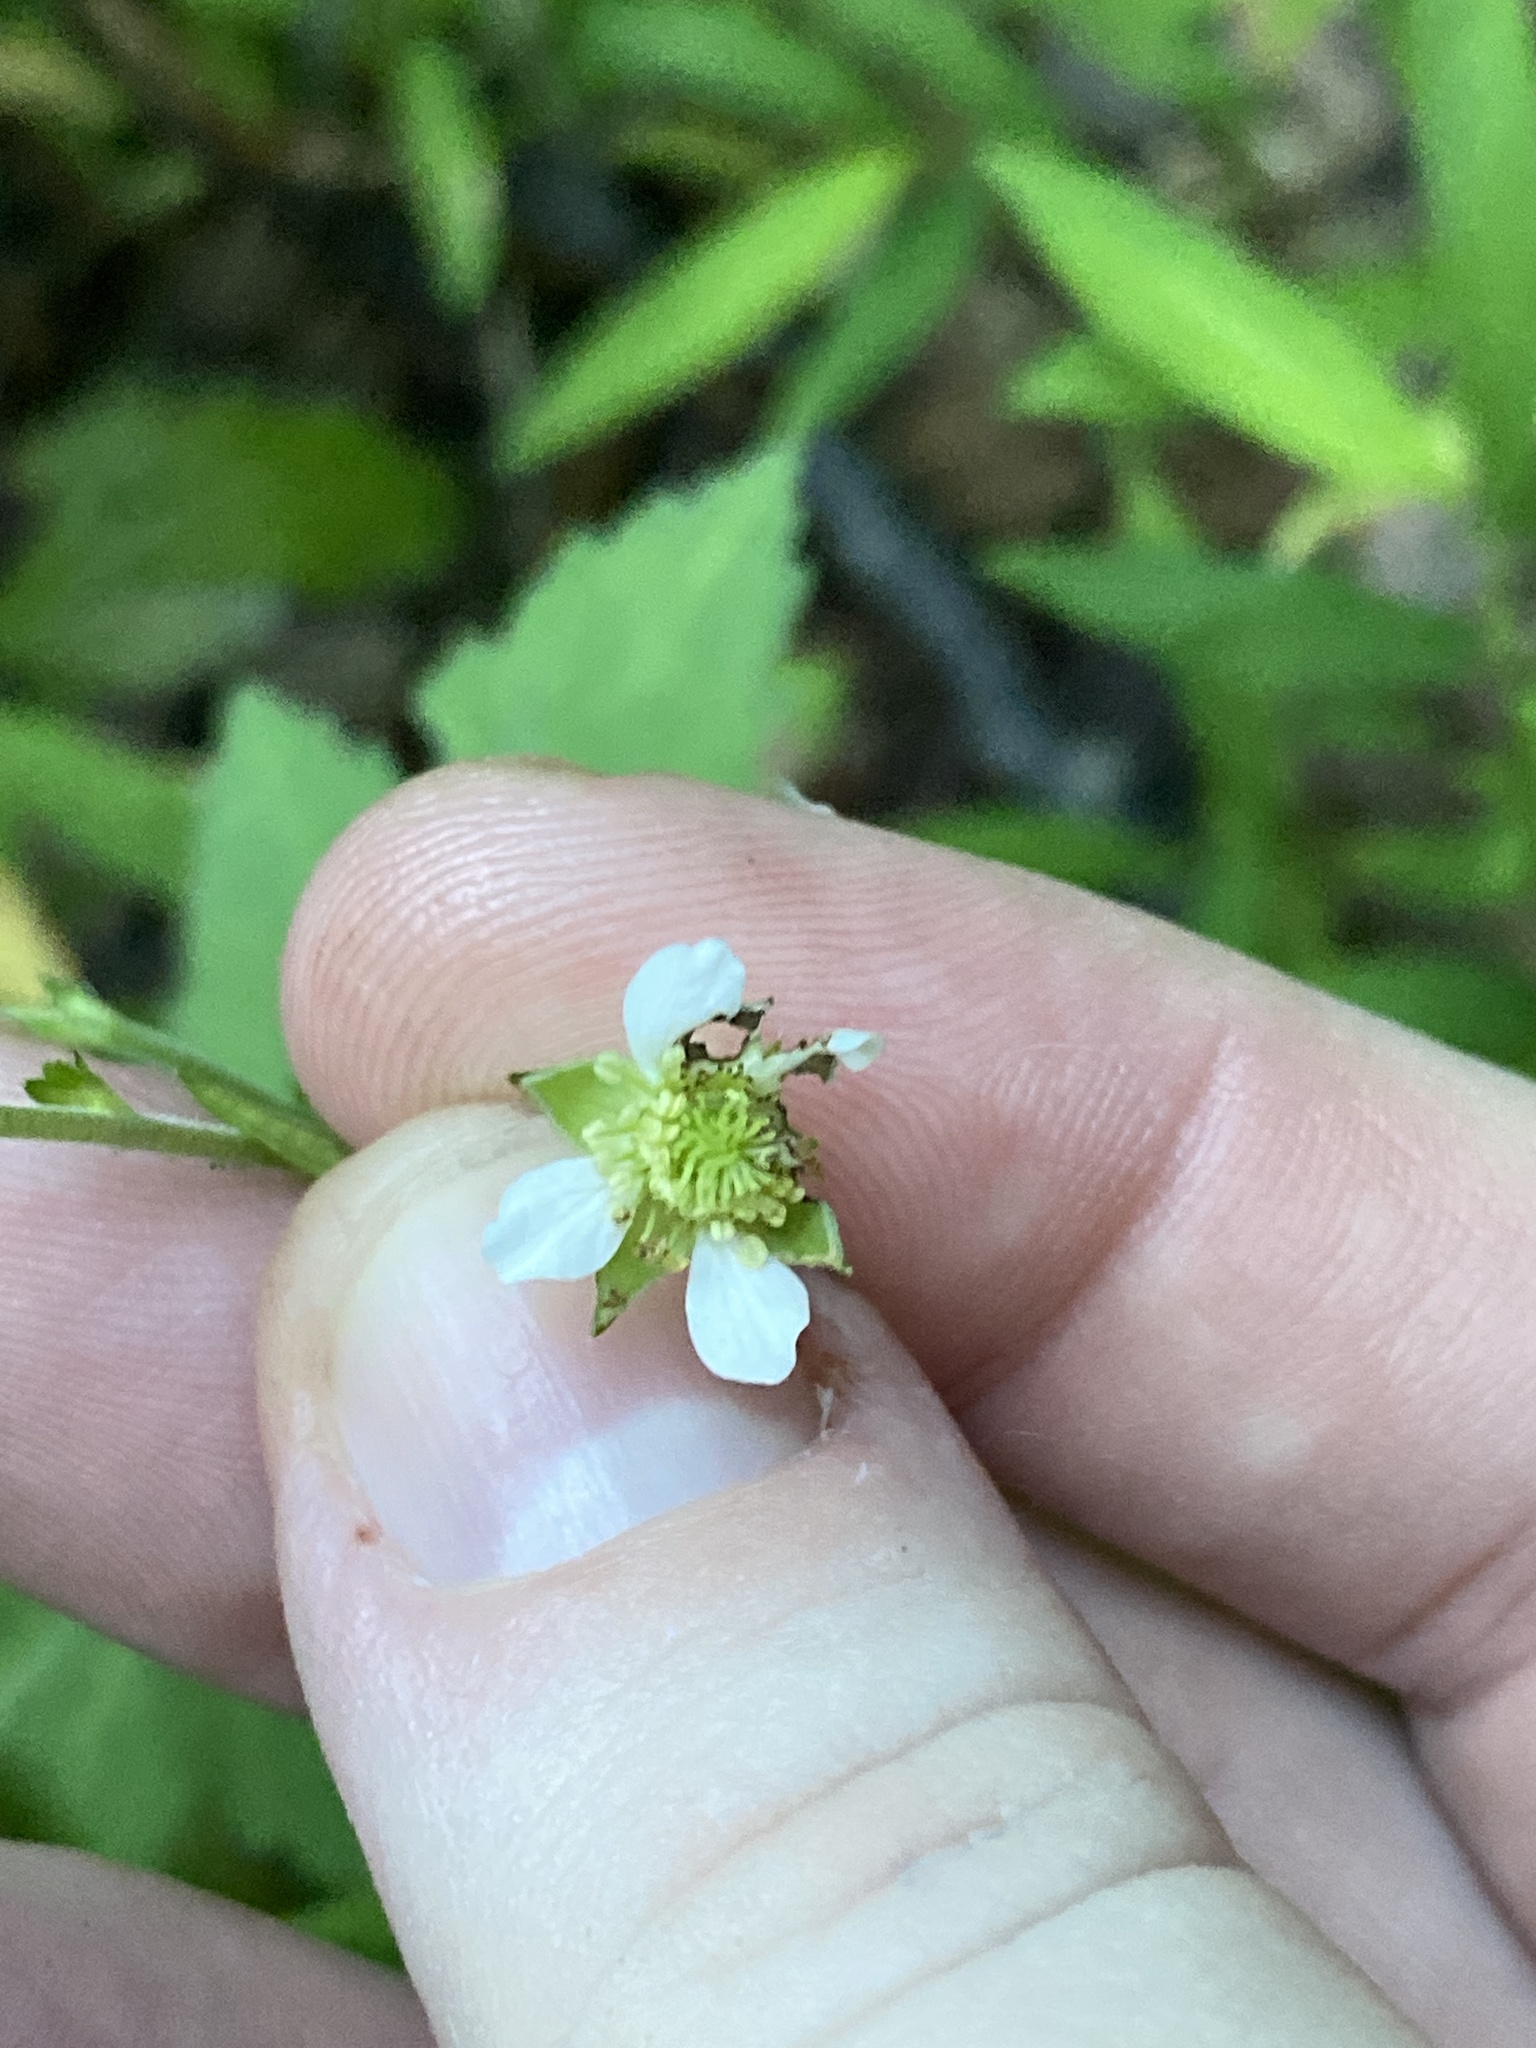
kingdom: Plantae
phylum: Tracheophyta
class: Magnoliopsida
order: Rosales
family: Rosaceae
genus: Geum
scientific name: Geum canadense
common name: White avens
